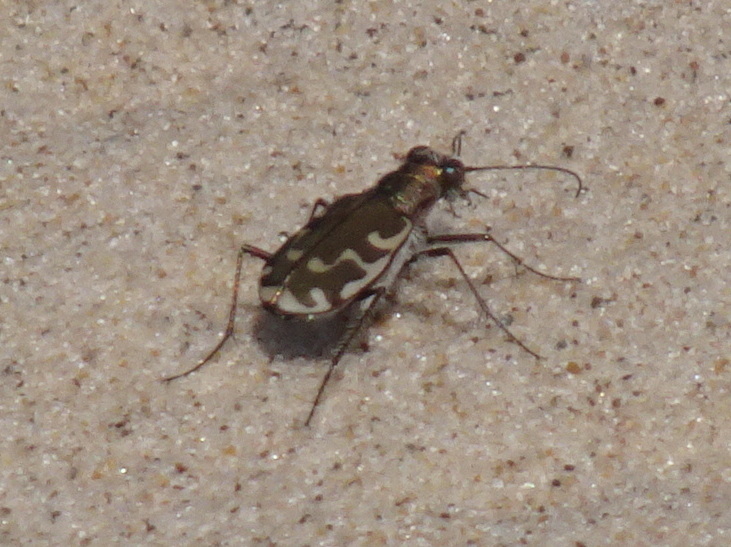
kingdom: Animalia
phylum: Arthropoda
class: Insecta
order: Coleoptera
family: Carabidae
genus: Cicindela
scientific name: Cicindela repanda
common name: Bronzed tiger beetle
